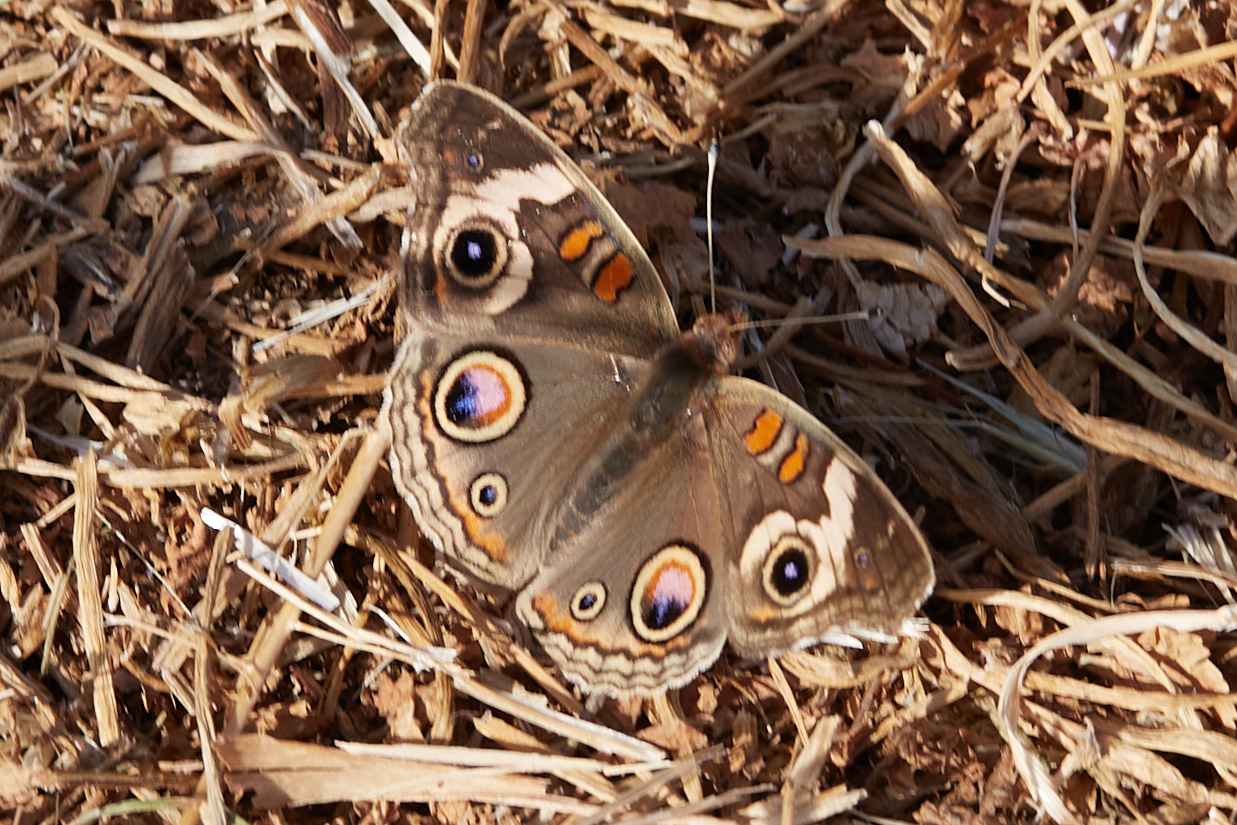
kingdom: Animalia
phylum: Arthropoda
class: Insecta
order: Lepidoptera
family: Nymphalidae
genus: Junonia
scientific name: Junonia grisea
